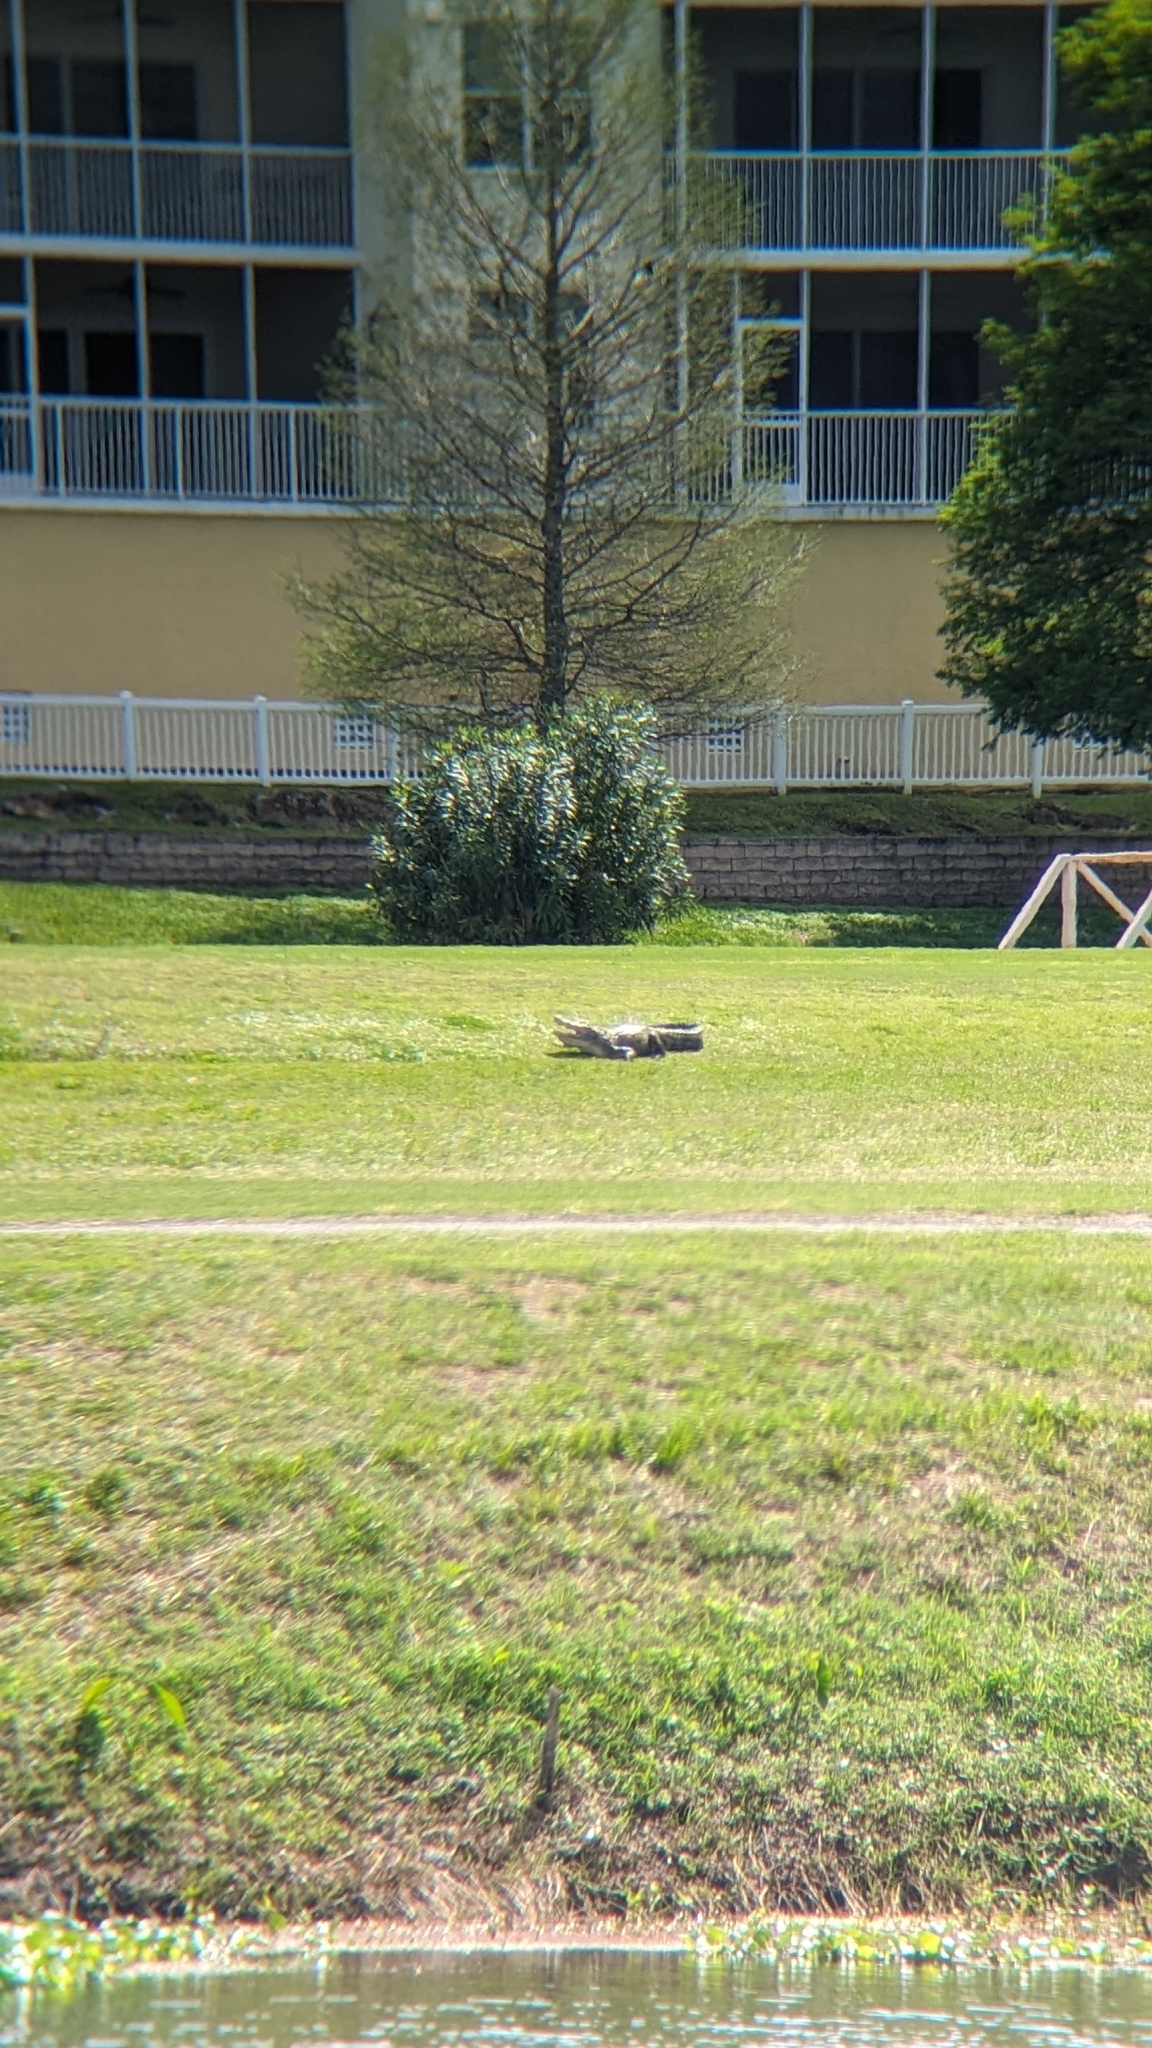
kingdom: Animalia
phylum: Chordata
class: Crocodylia
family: Alligatoridae
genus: Alligator
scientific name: Alligator mississippiensis
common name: American alligator
